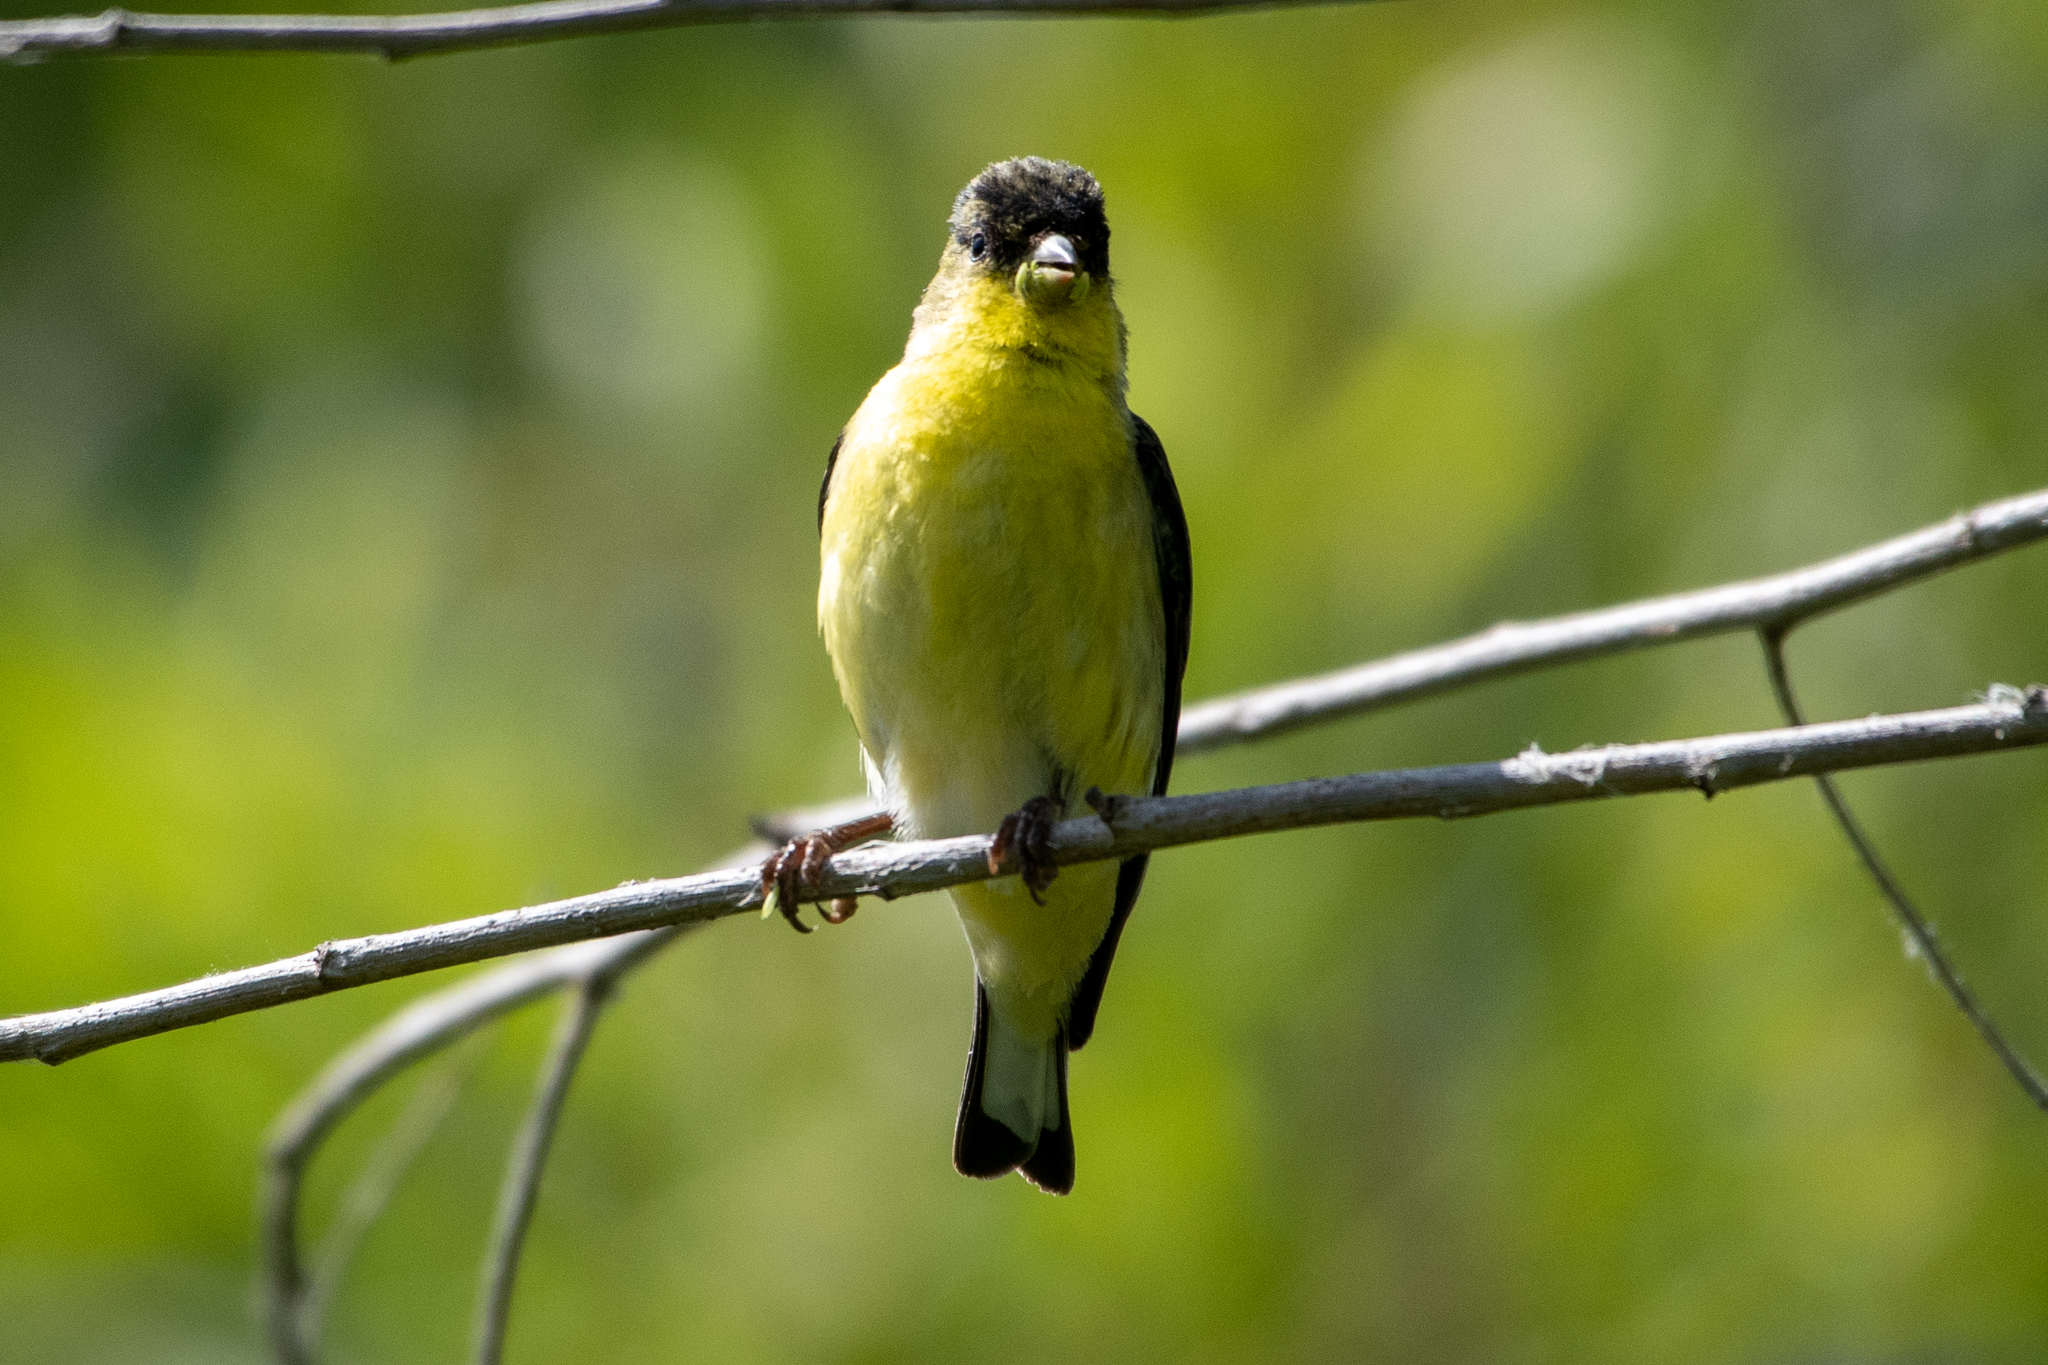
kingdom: Animalia
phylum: Chordata
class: Aves
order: Passeriformes
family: Fringillidae
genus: Spinus
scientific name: Spinus psaltria
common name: Lesser goldfinch
